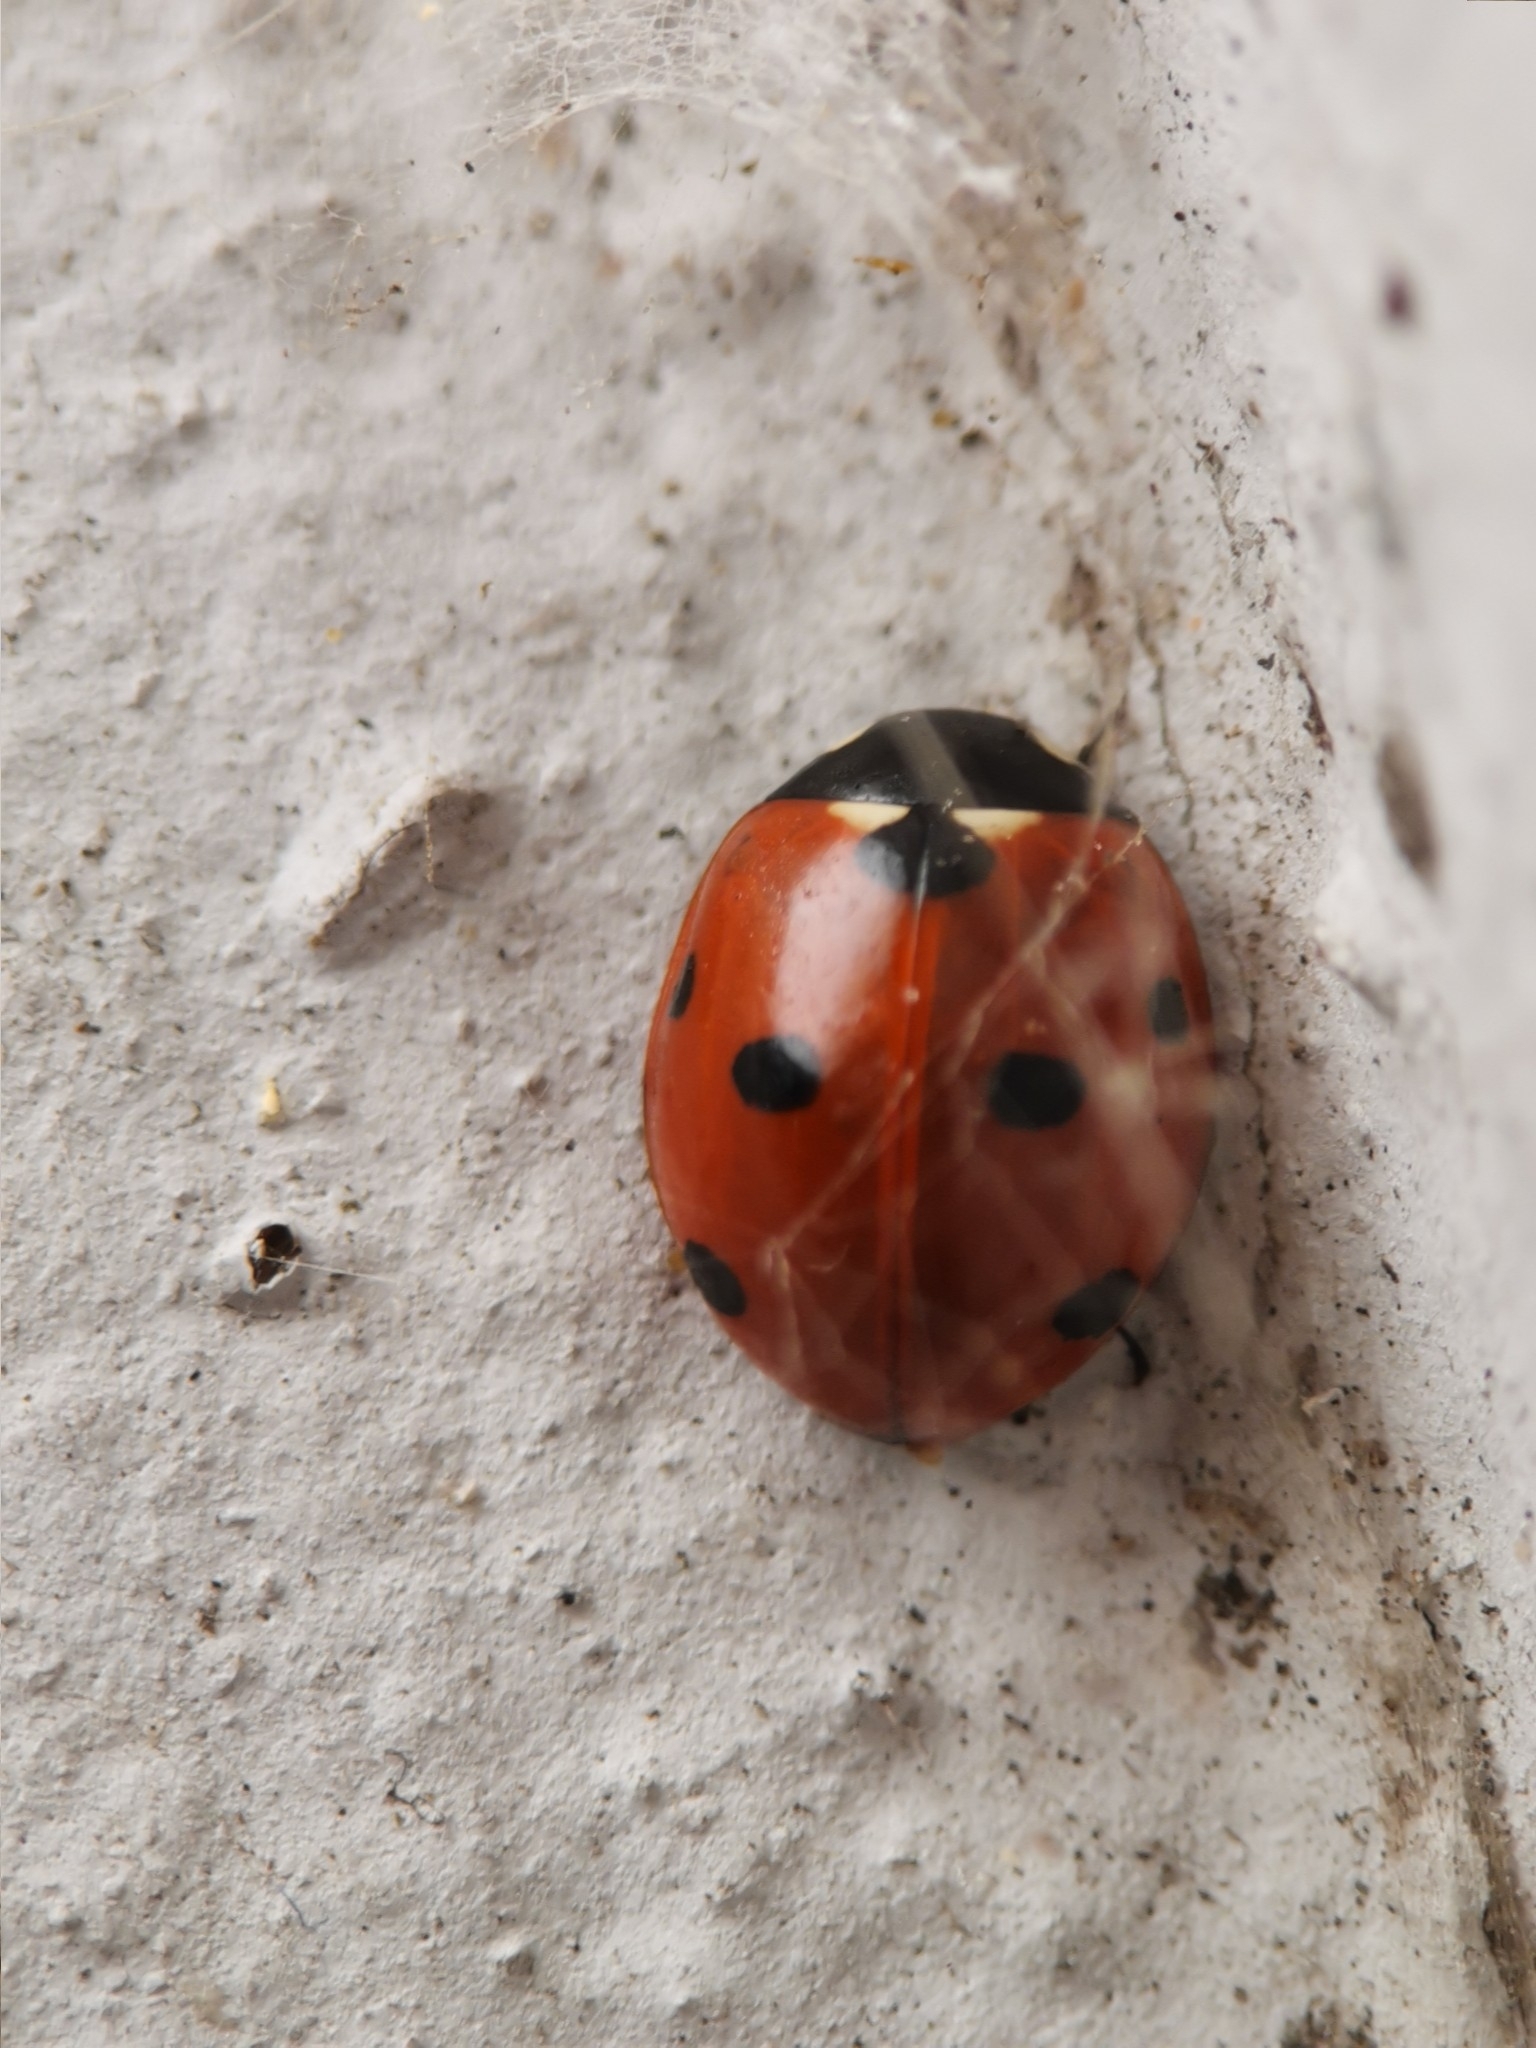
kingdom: Animalia
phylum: Arthropoda
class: Insecta
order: Coleoptera
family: Coccinellidae
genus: Coccinella
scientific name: Coccinella septempunctata
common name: Sevenspotted lady beetle
